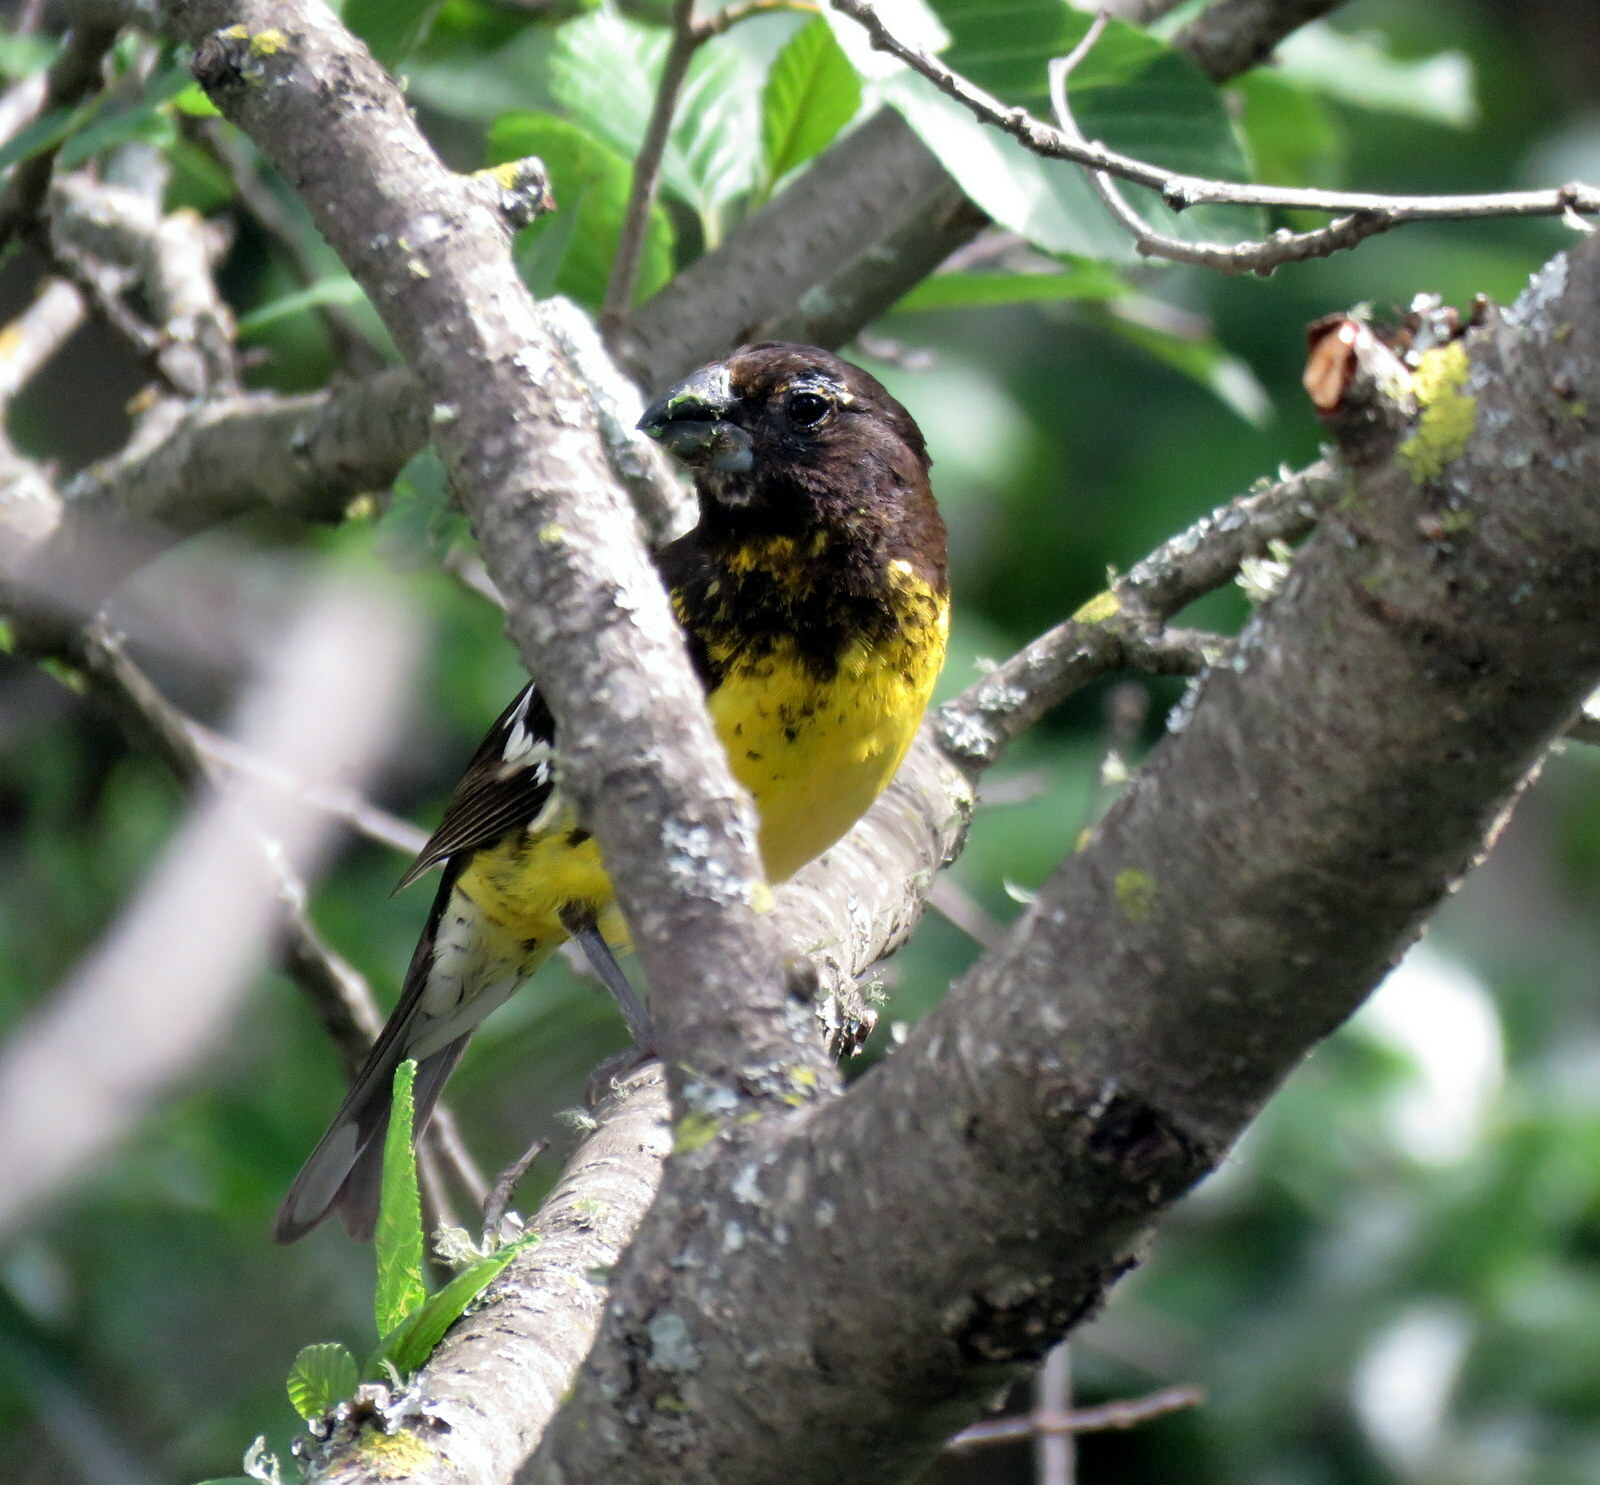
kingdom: Animalia
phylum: Chordata
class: Aves
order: Passeriformes
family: Cardinalidae
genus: Pheucticus
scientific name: Pheucticus aureoventris
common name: Black-backed grosbeak
